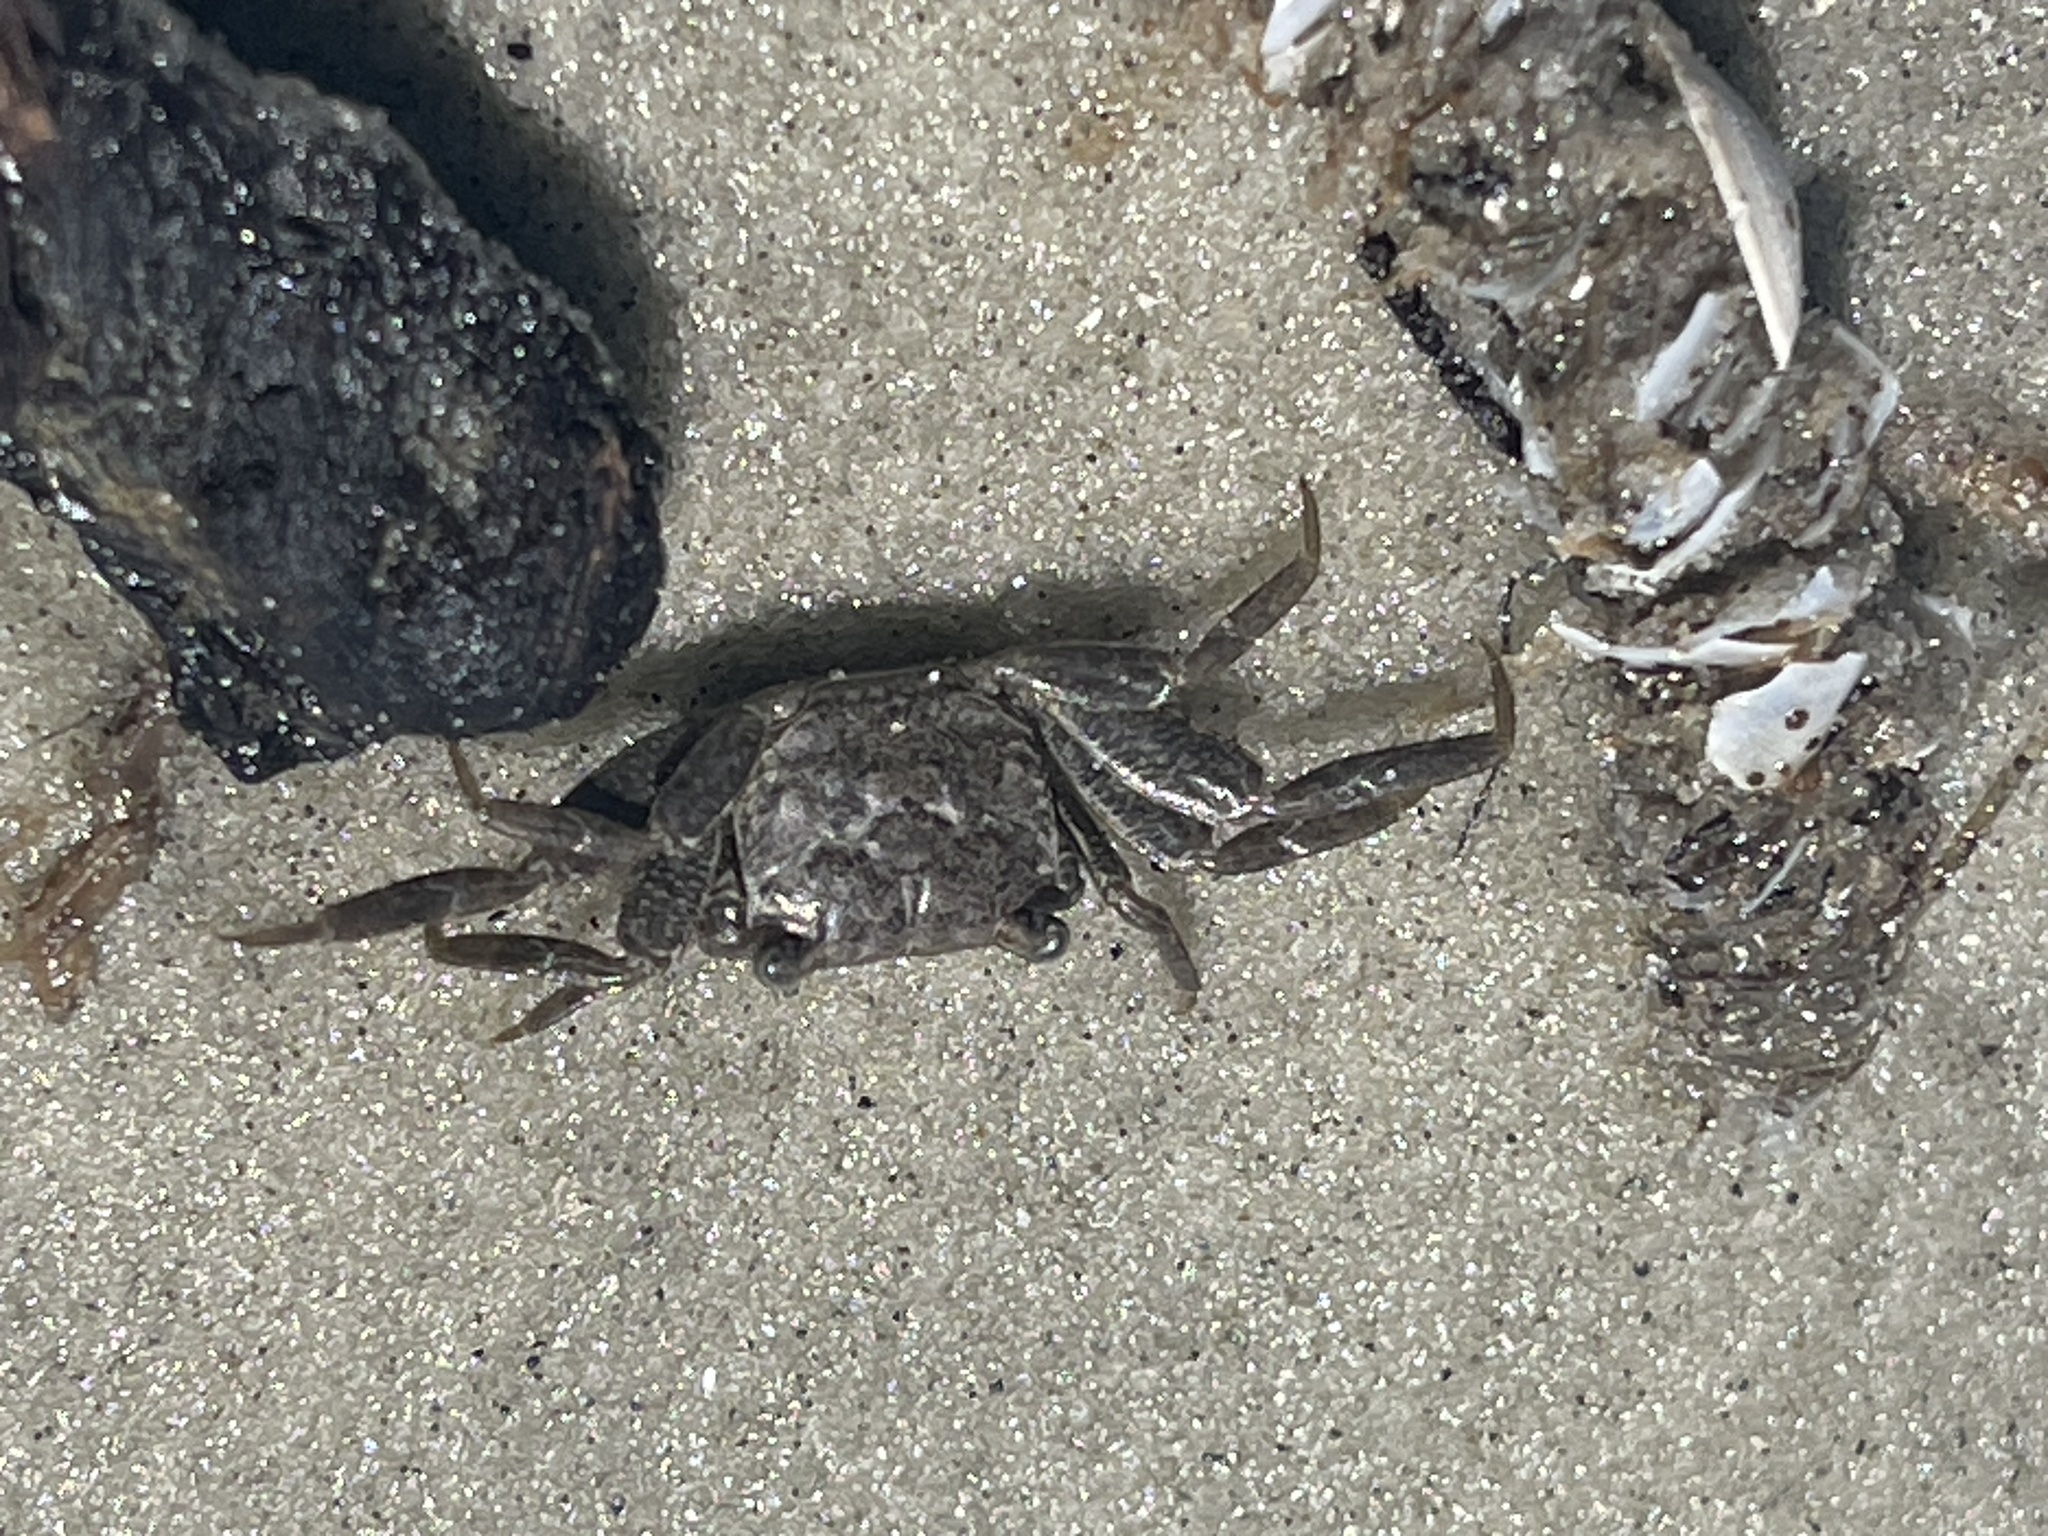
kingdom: Animalia
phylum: Arthropoda
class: Malacostraca
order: Decapoda
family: Sesarmidae
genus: Armases
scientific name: Armases cinereum
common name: Squareback marsh crab
